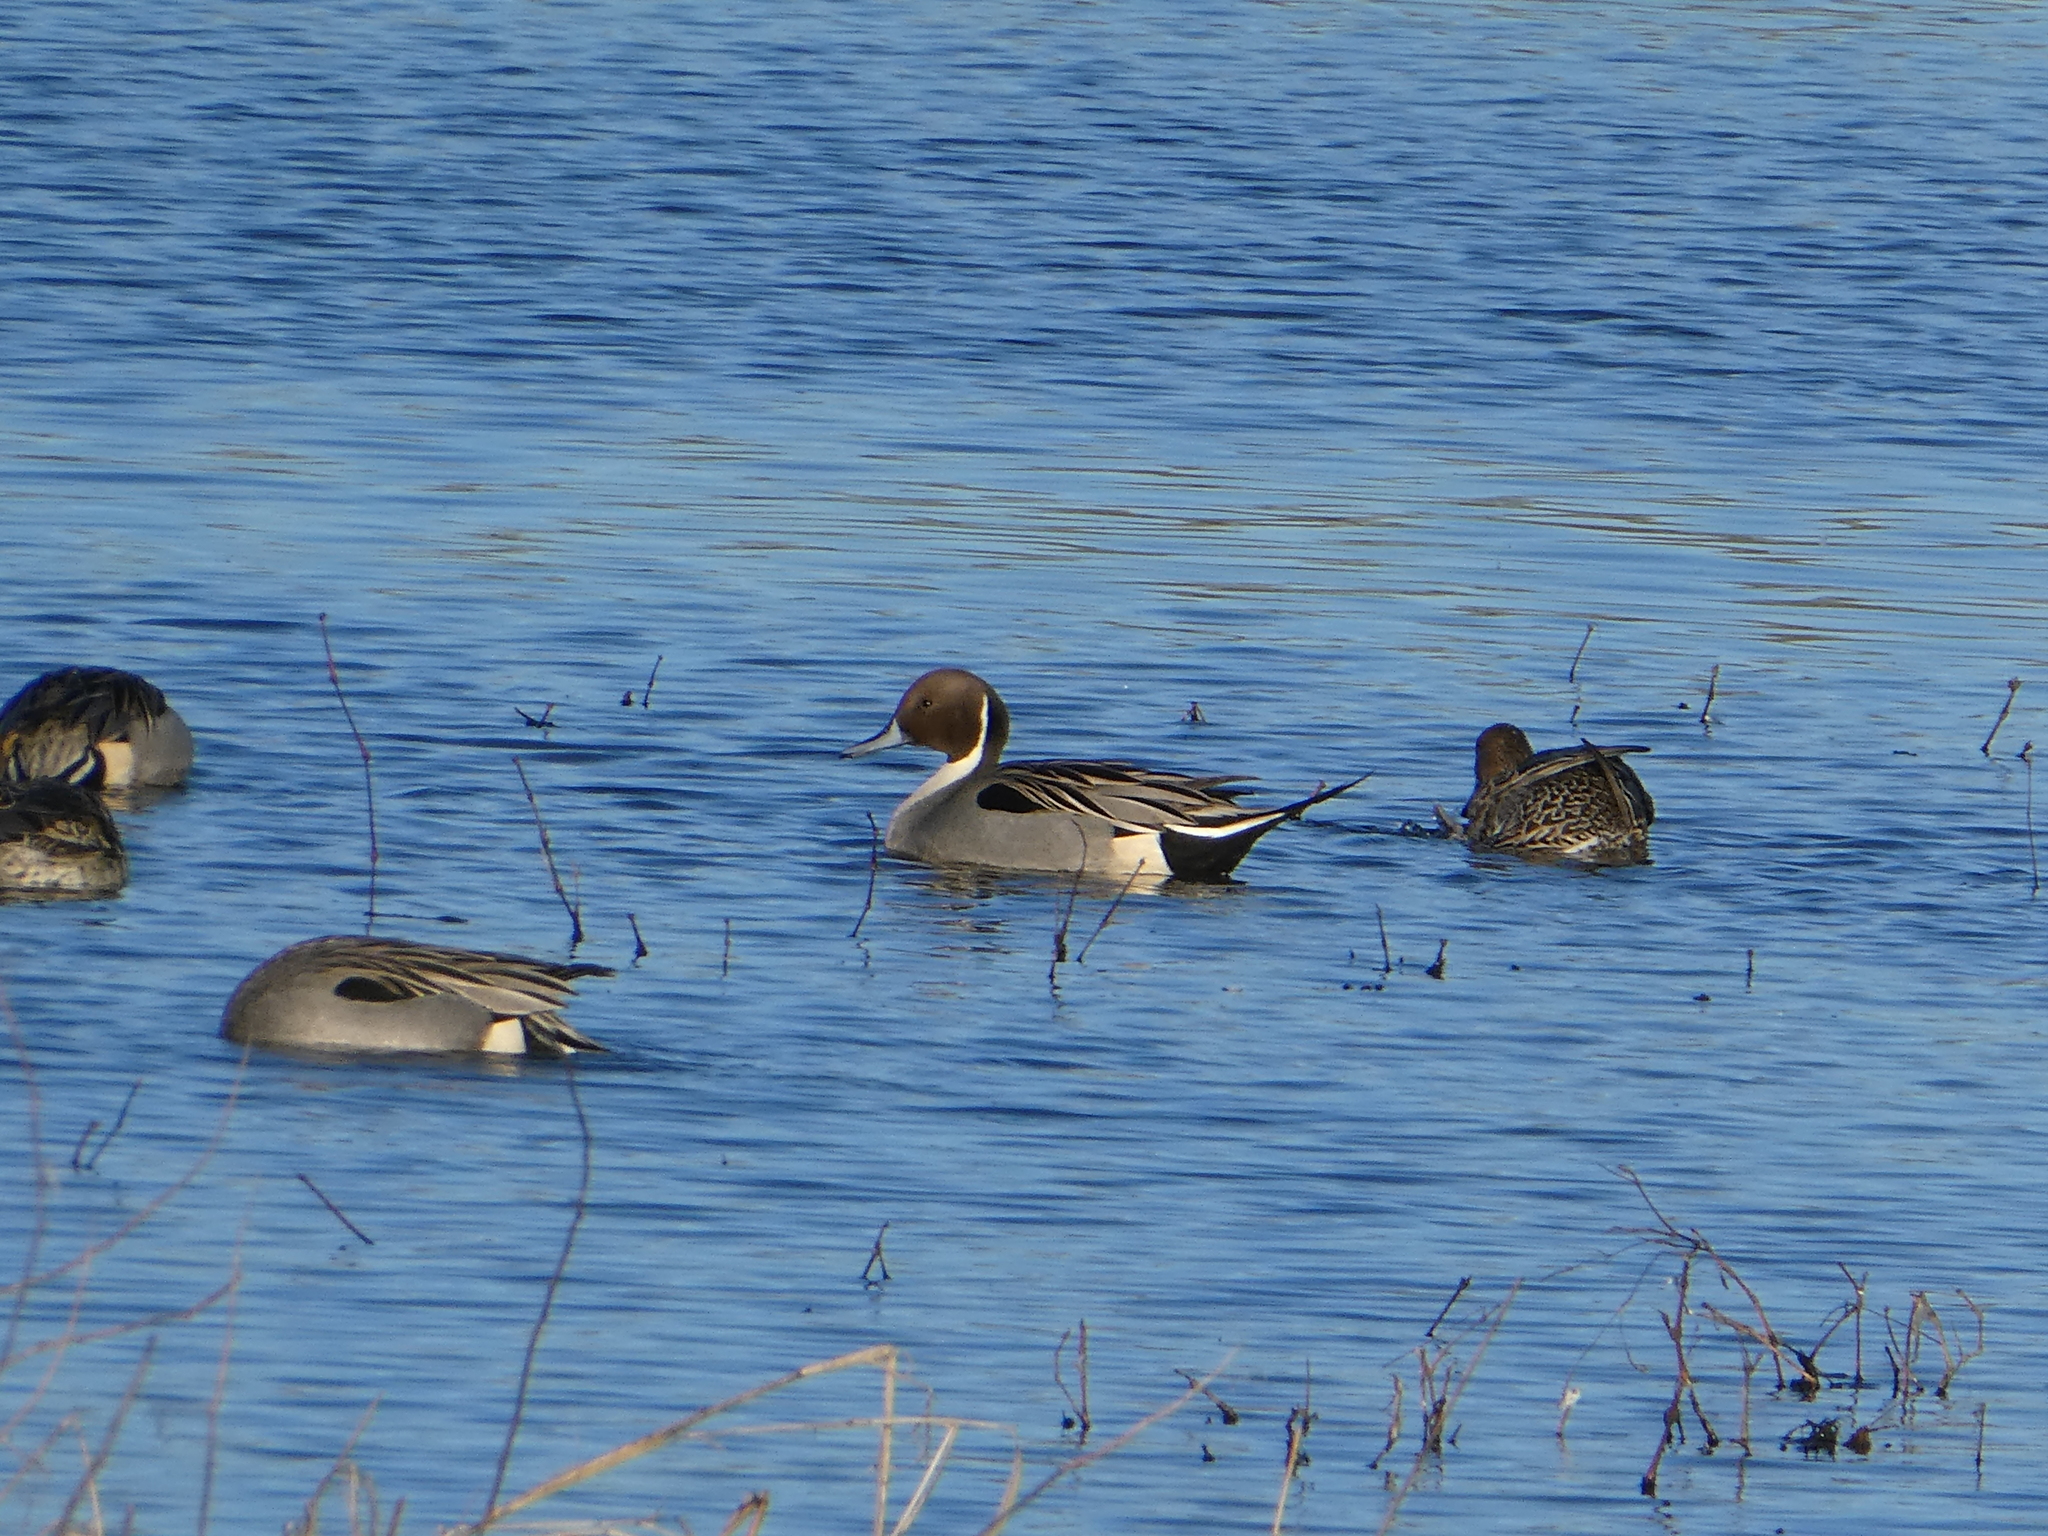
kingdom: Animalia
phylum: Chordata
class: Aves
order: Anseriformes
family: Anatidae
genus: Anas
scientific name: Anas acuta
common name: Northern pintail
